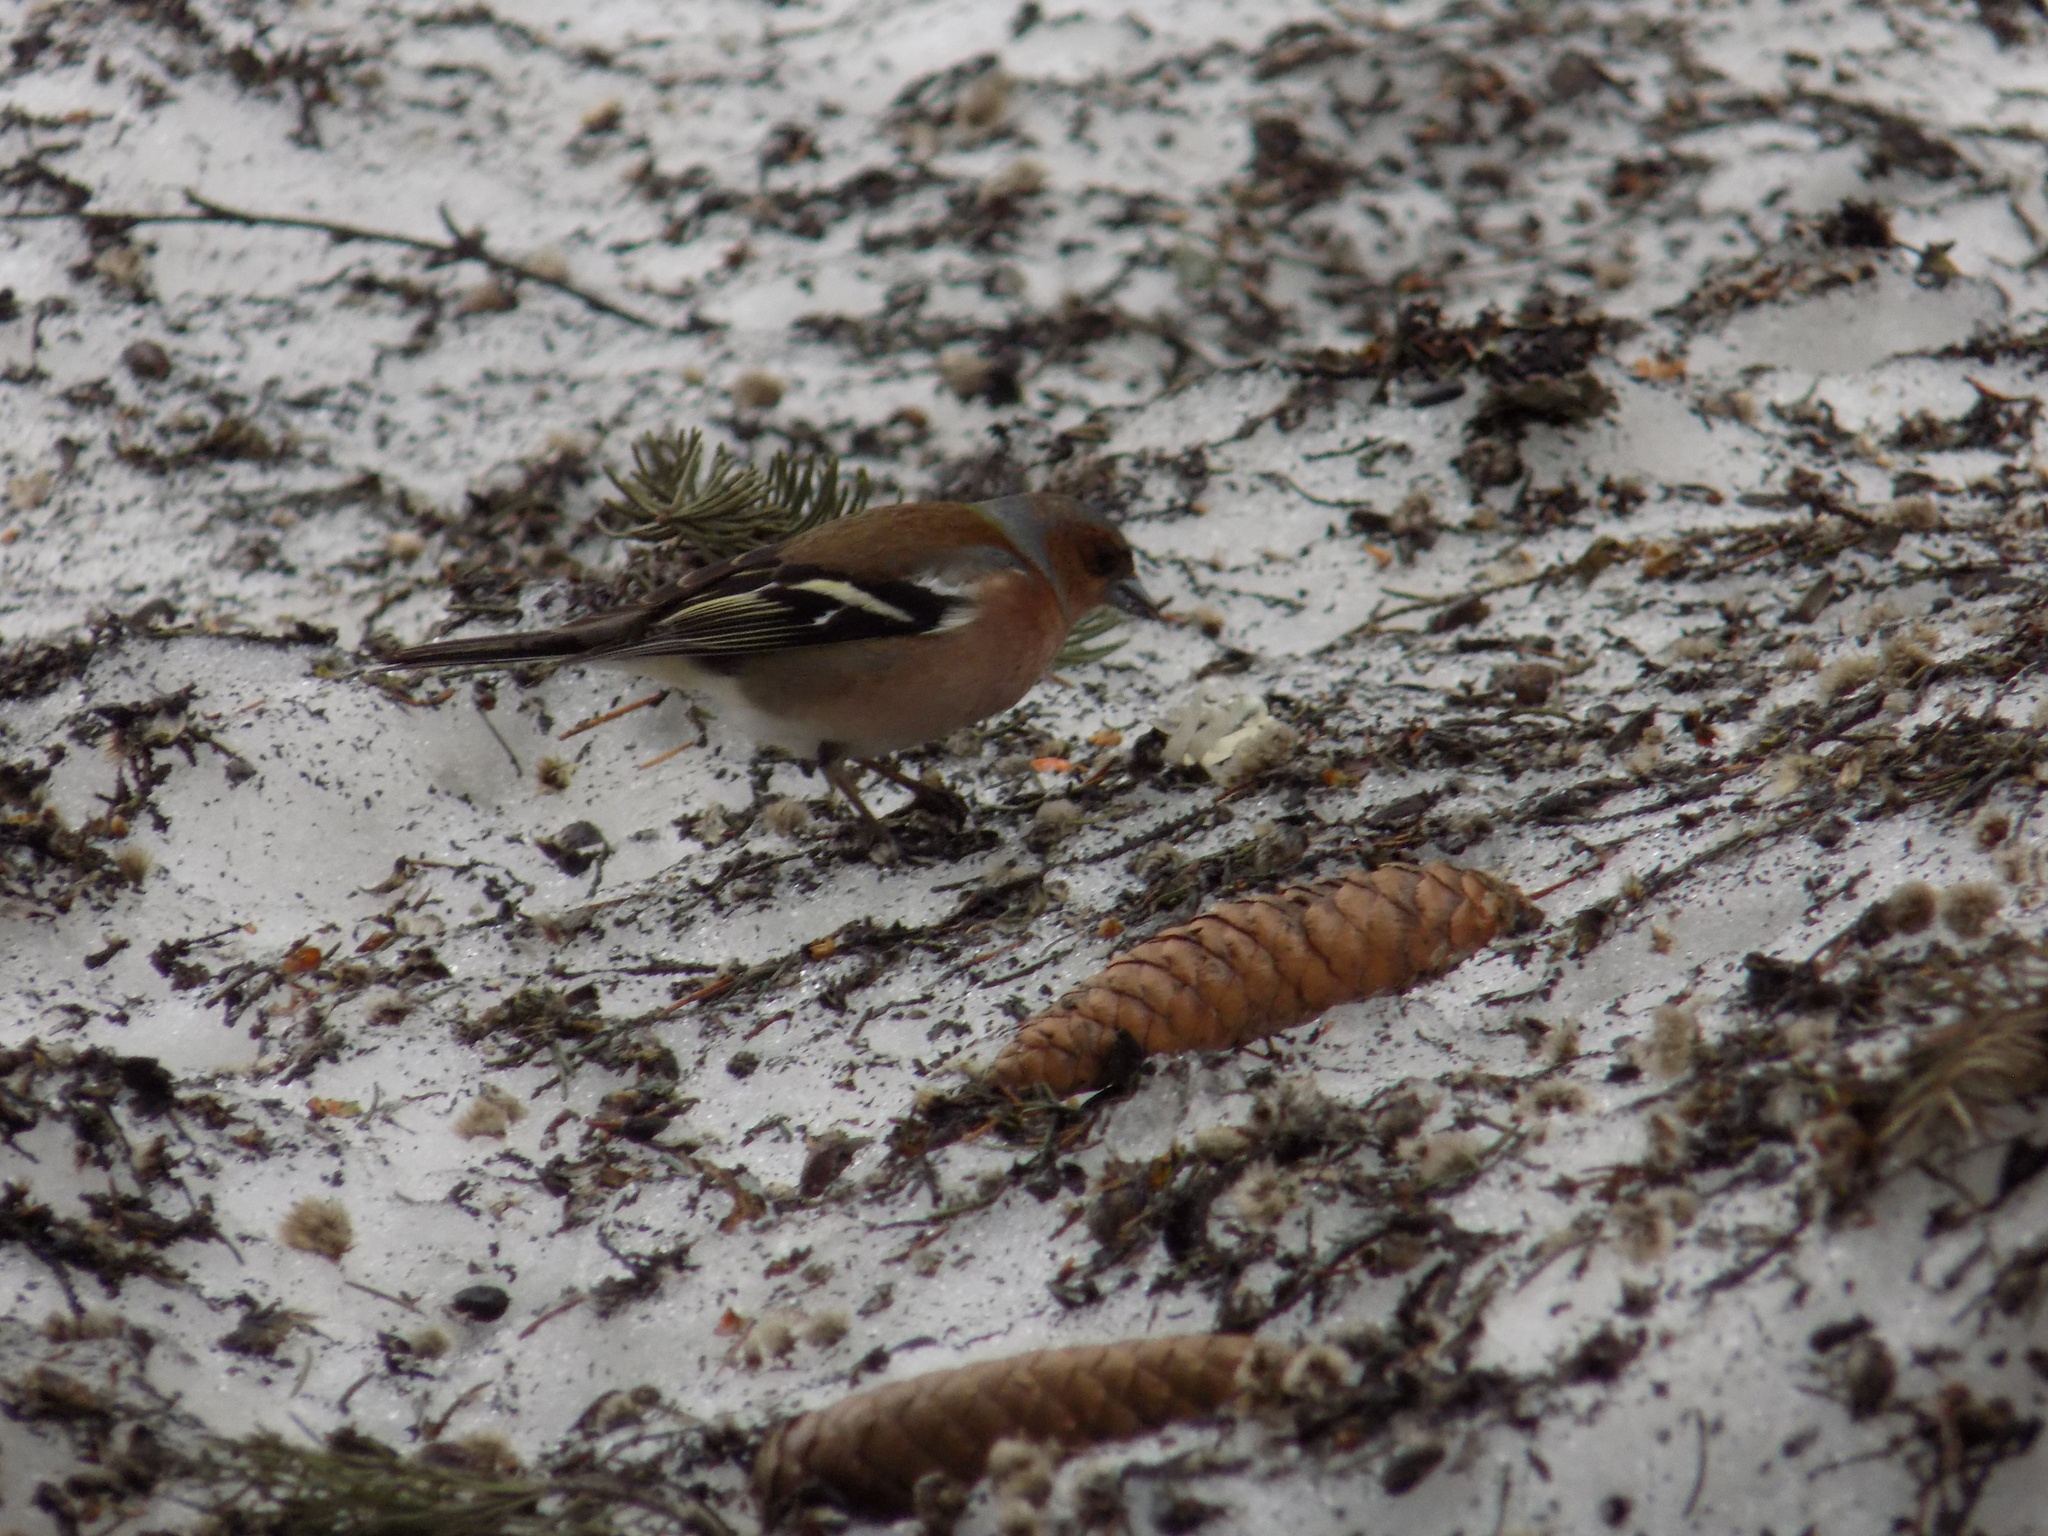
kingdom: Animalia
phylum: Chordata
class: Aves
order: Passeriformes
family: Fringillidae
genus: Fringilla
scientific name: Fringilla coelebs
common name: Common chaffinch
